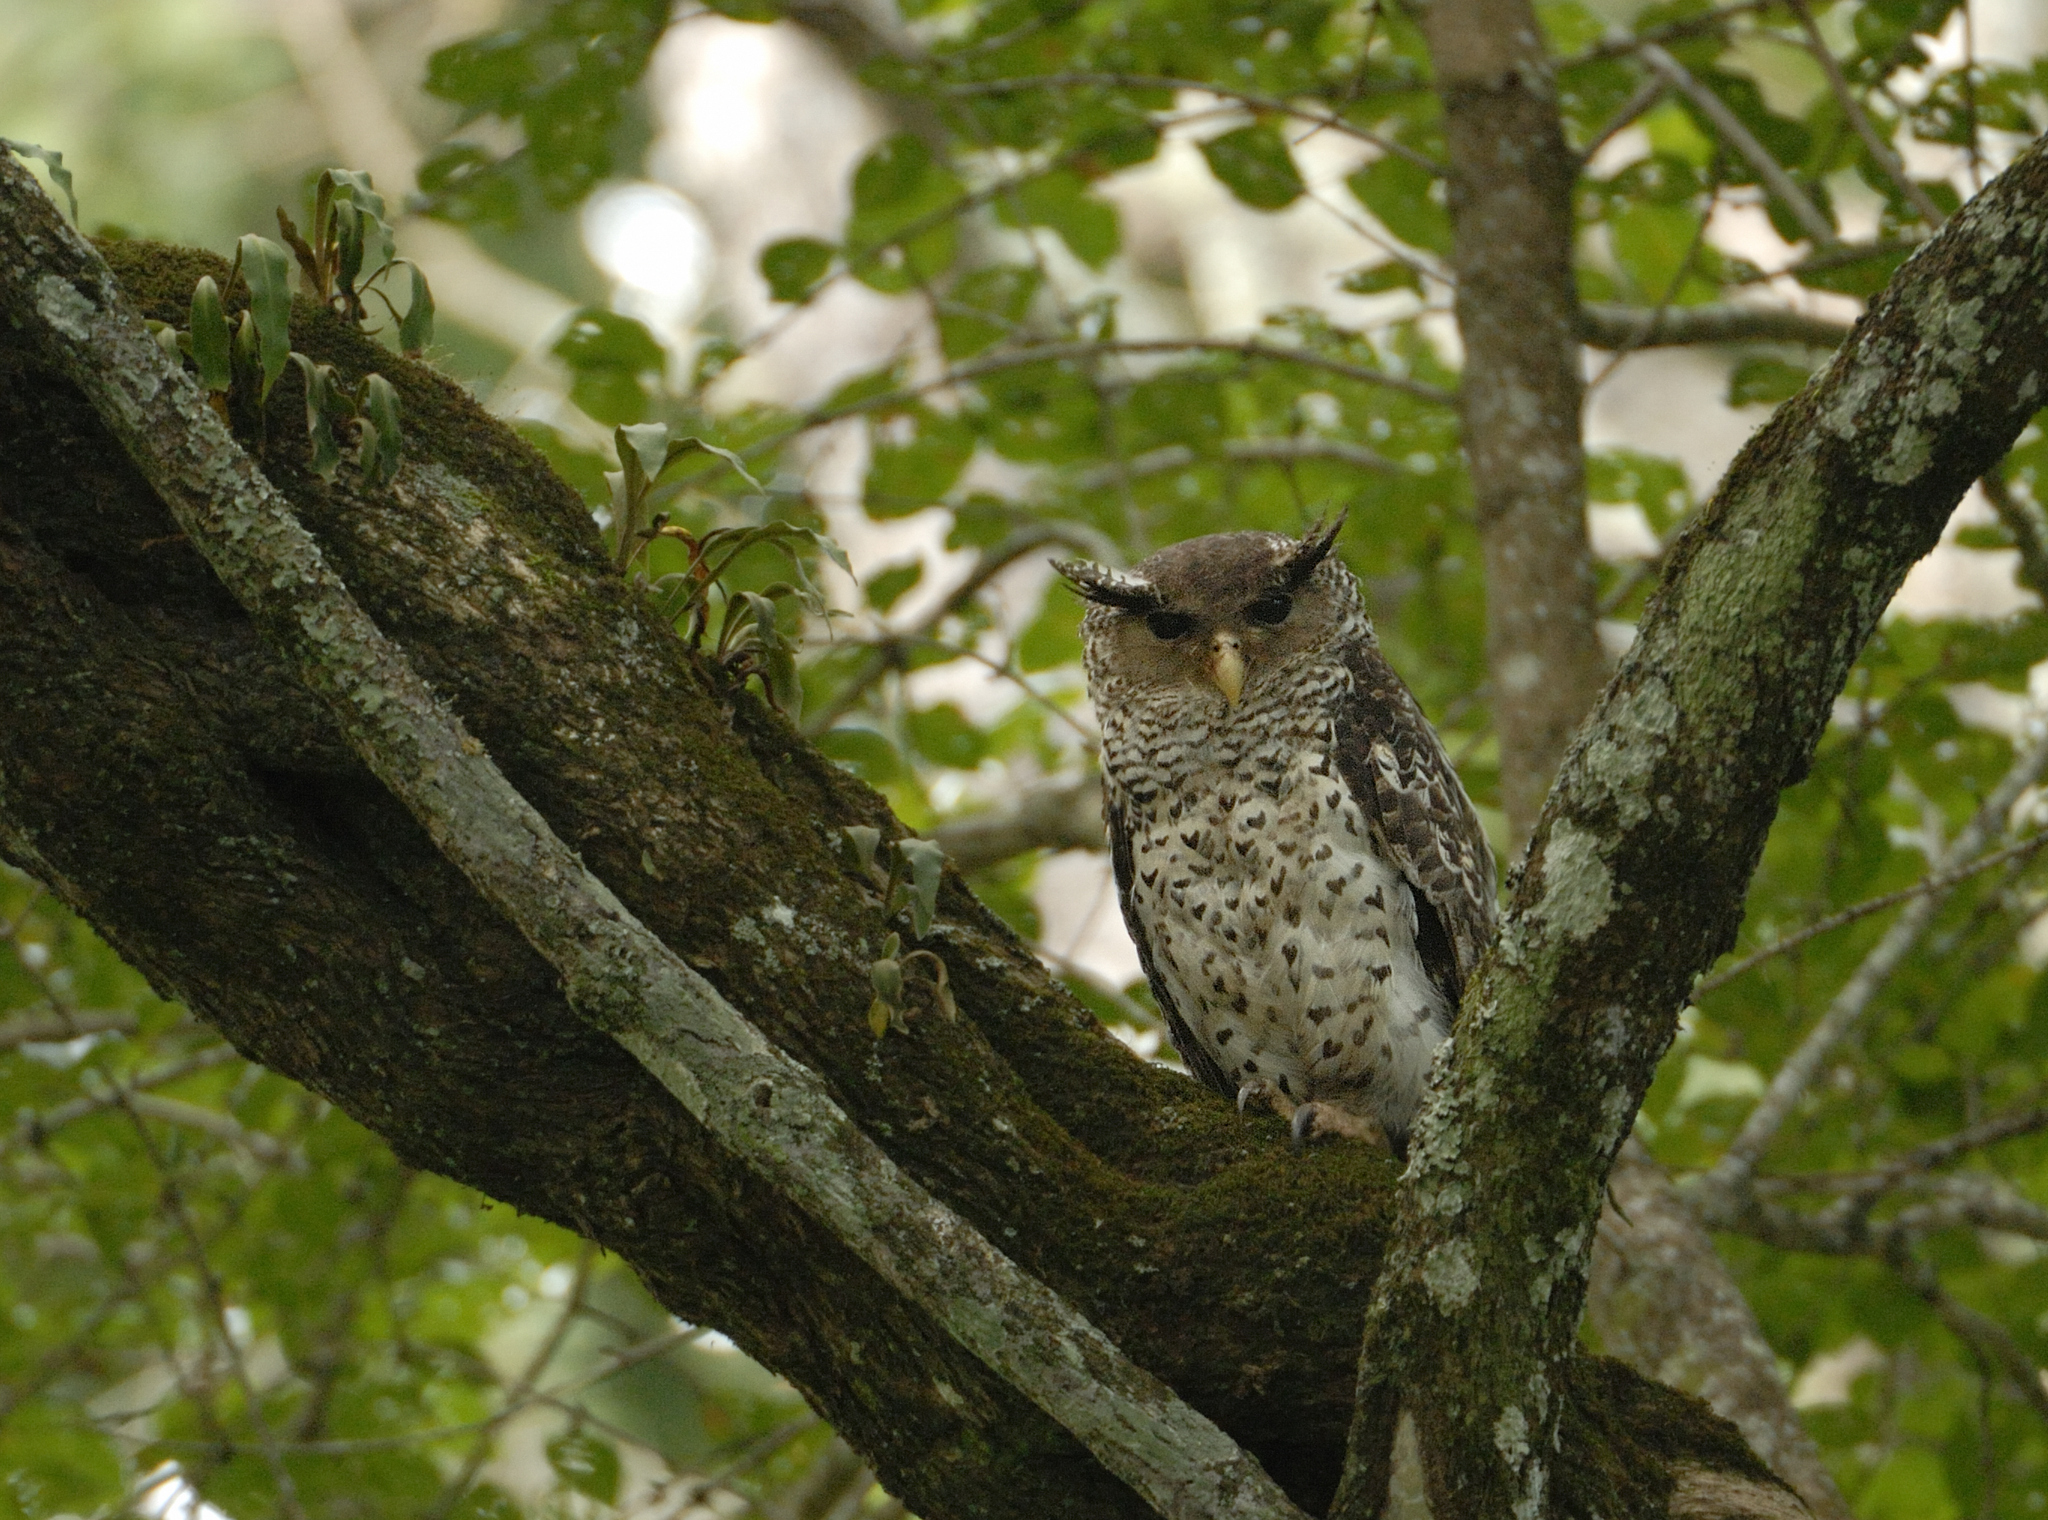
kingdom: Animalia
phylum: Chordata
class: Aves
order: Strigiformes
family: Strigidae
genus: Ketupa
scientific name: Ketupa nipalensis
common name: Spot-bellied eagle-owl
